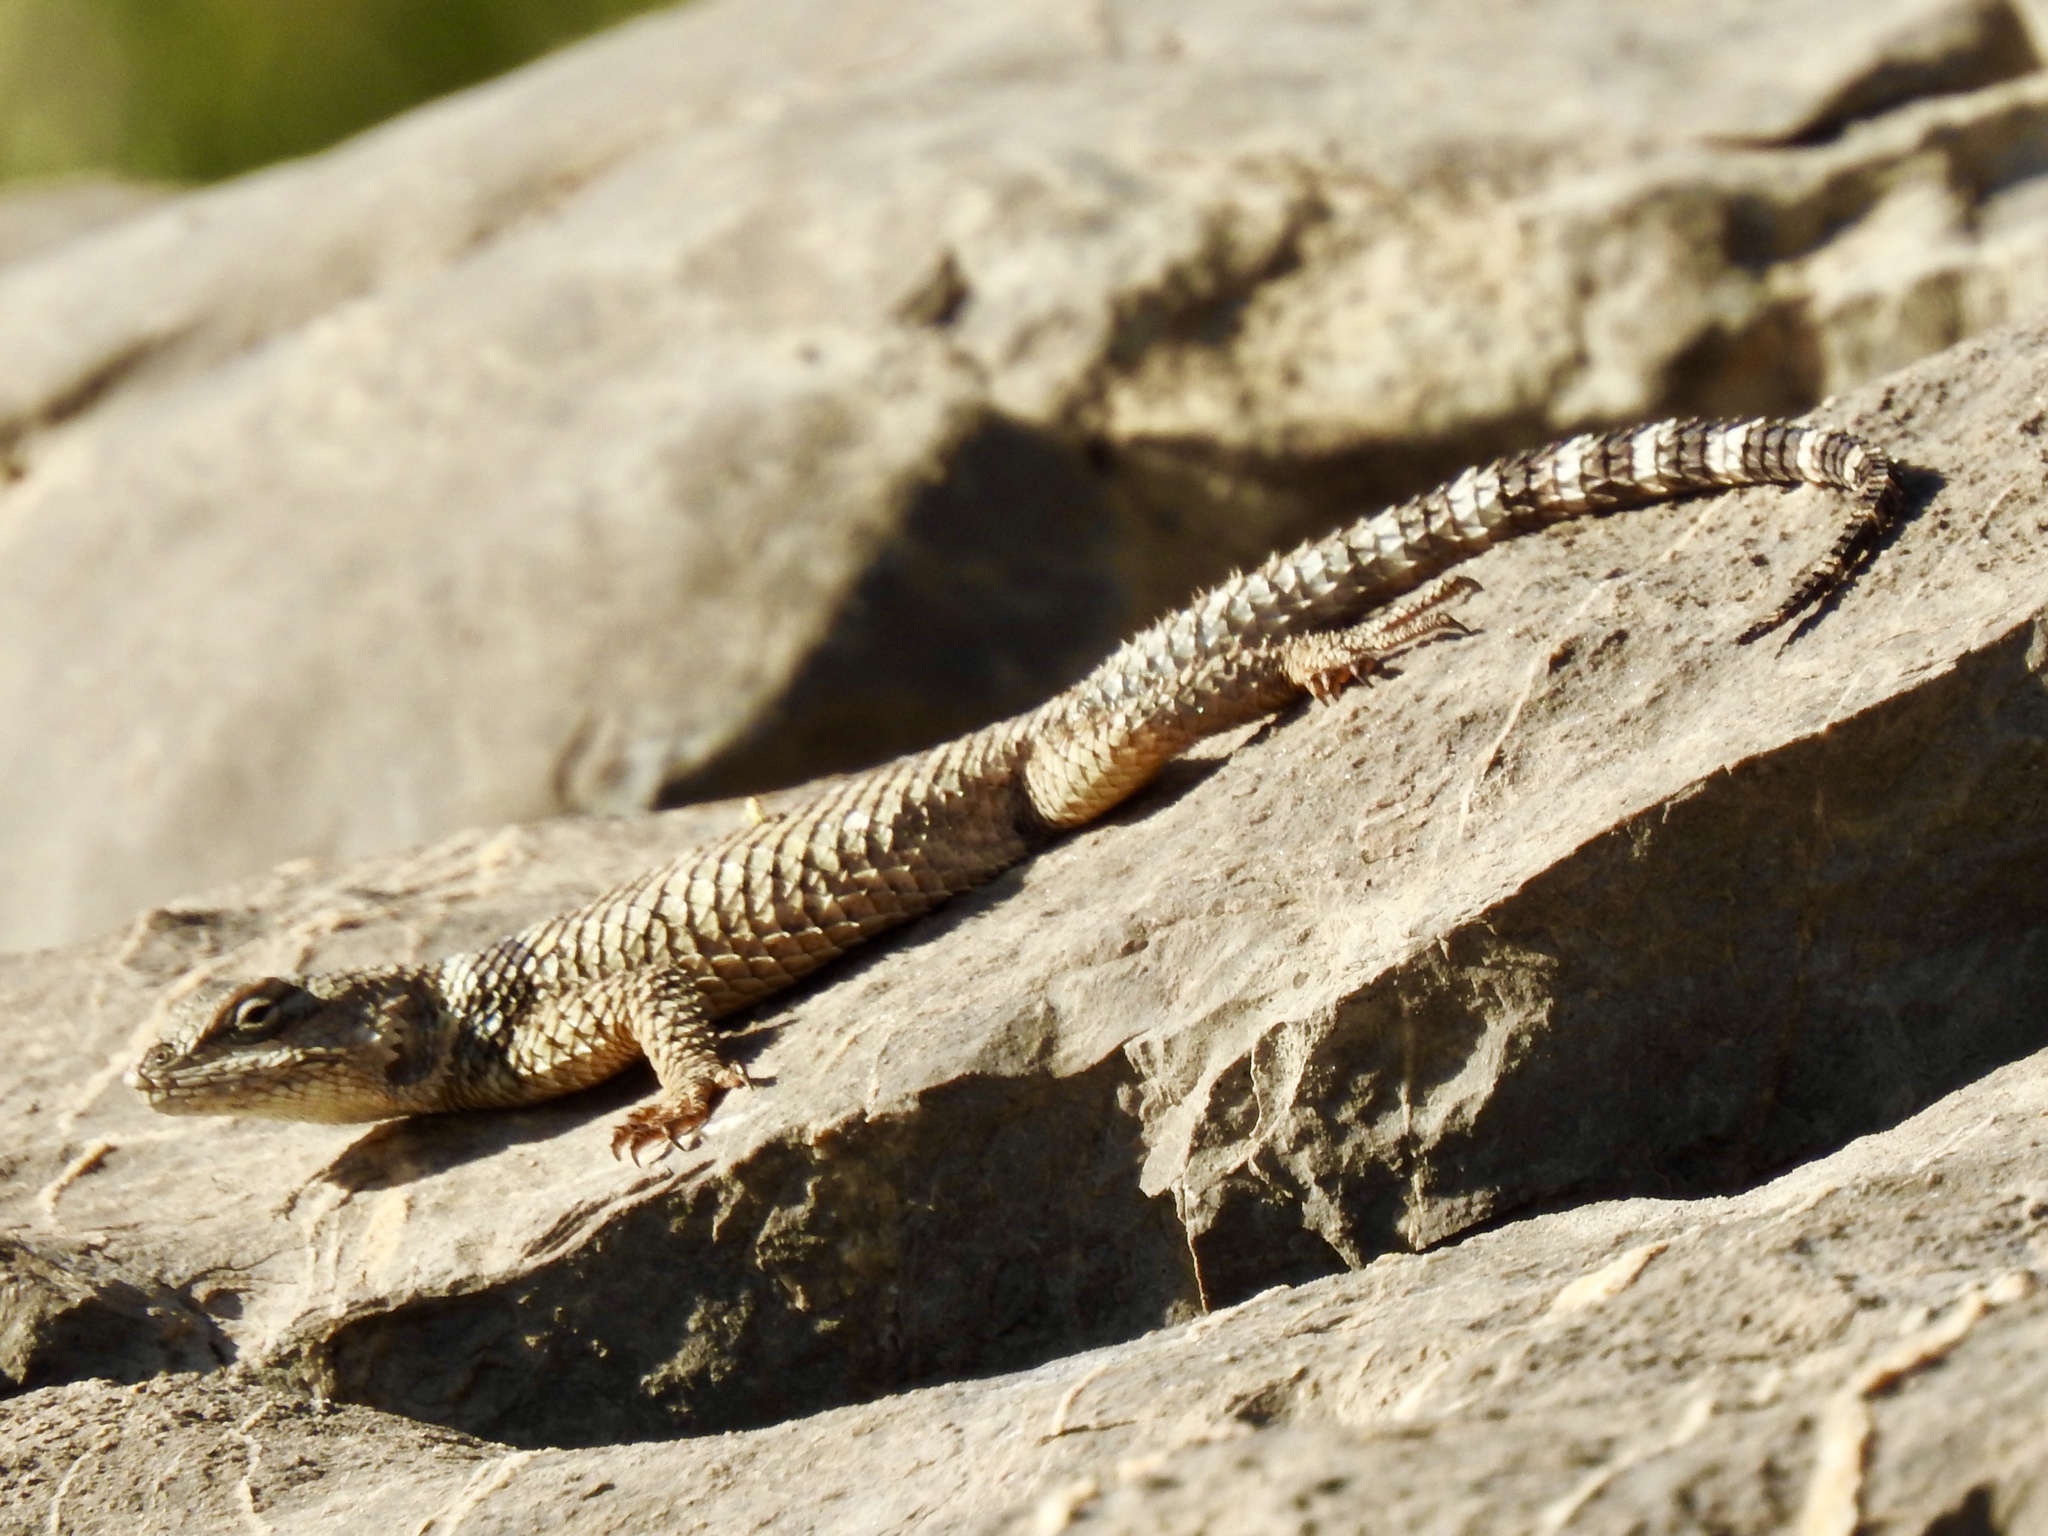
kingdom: Animalia
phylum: Chordata
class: Squamata
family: Phrynosomatidae
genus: Sceloporus
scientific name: Sceloporus poinsettii
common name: Crevice spiny lizard
